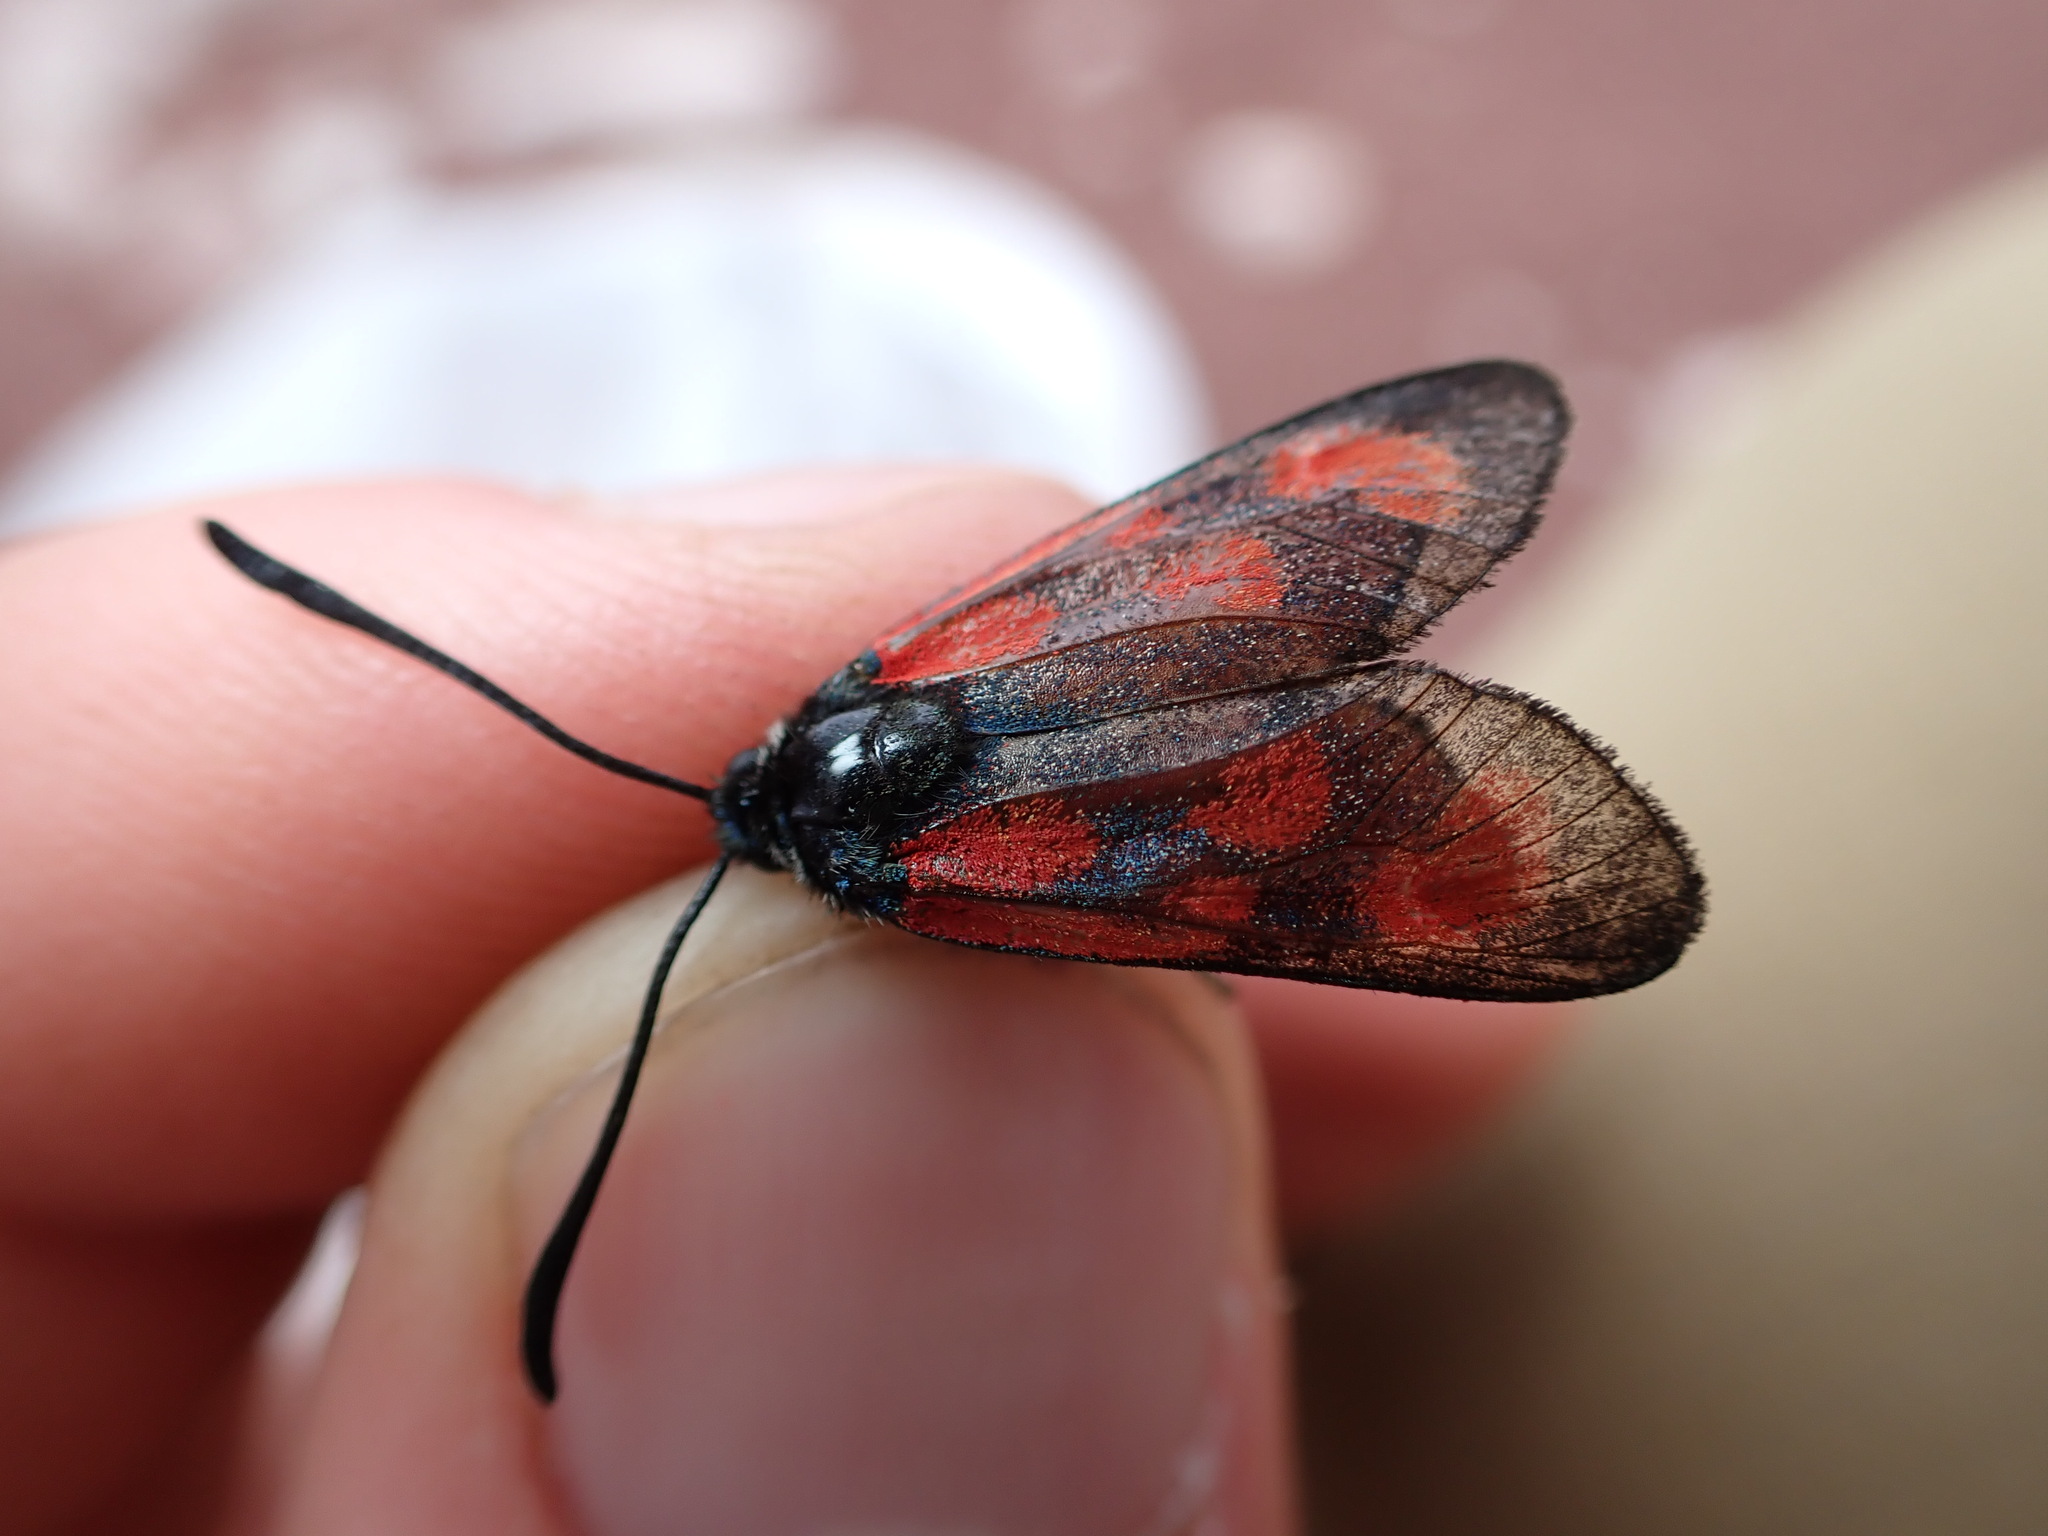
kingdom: Animalia
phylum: Arthropoda
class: Insecta
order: Lepidoptera
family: Zygaenidae
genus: Zygaena
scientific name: Zygaena loti
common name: Slender scotch burnet
